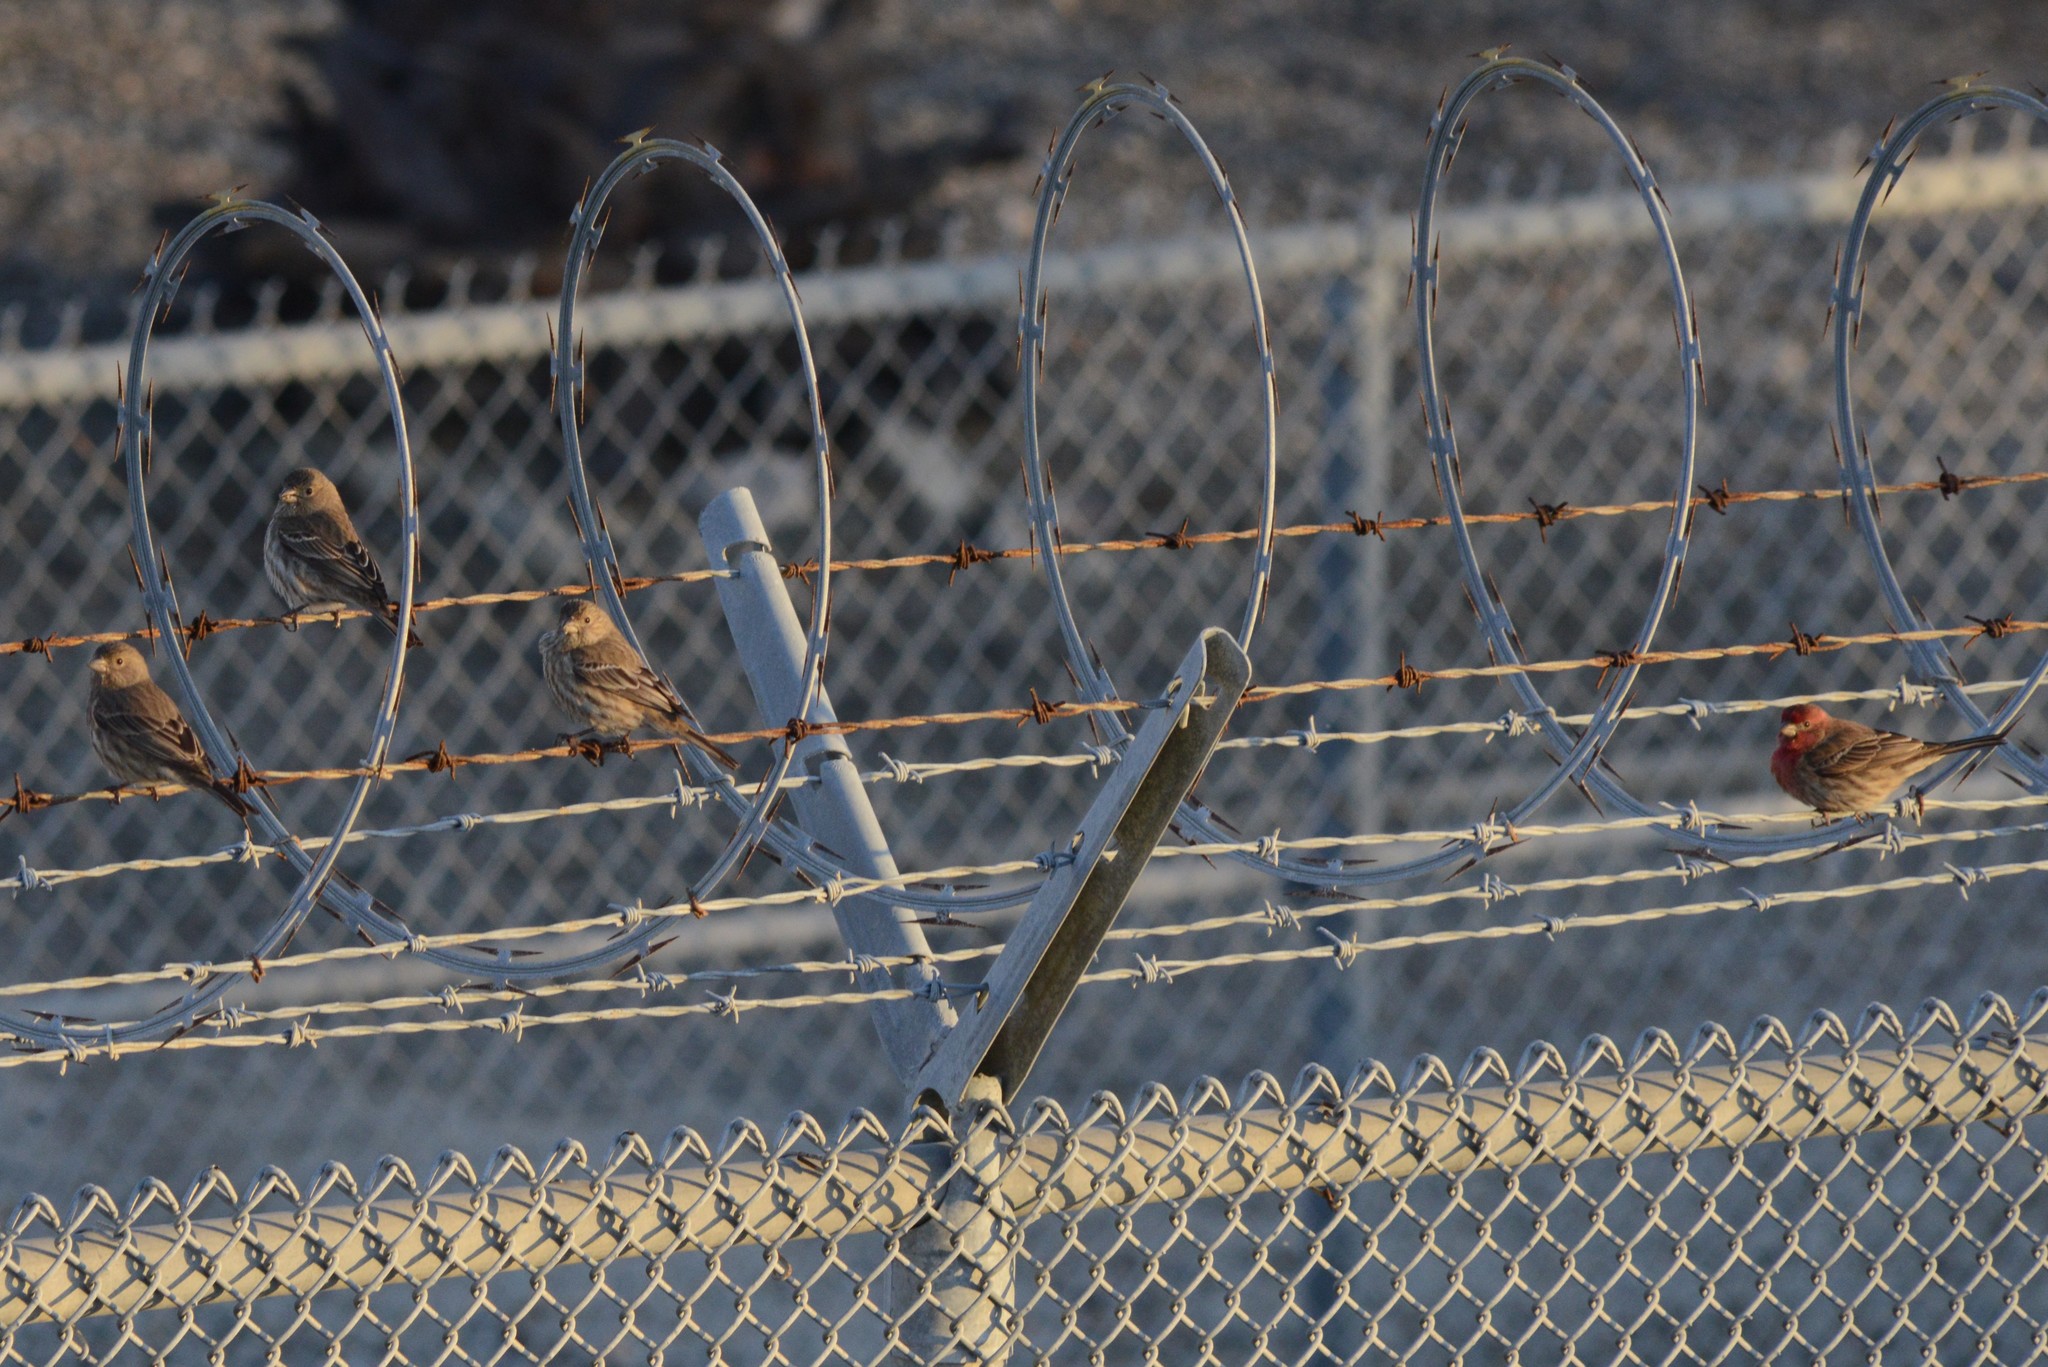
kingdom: Animalia
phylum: Chordata
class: Aves
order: Passeriformes
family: Fringillidae
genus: Haemorhous
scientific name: Haemorhous mexicanus
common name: House finch
